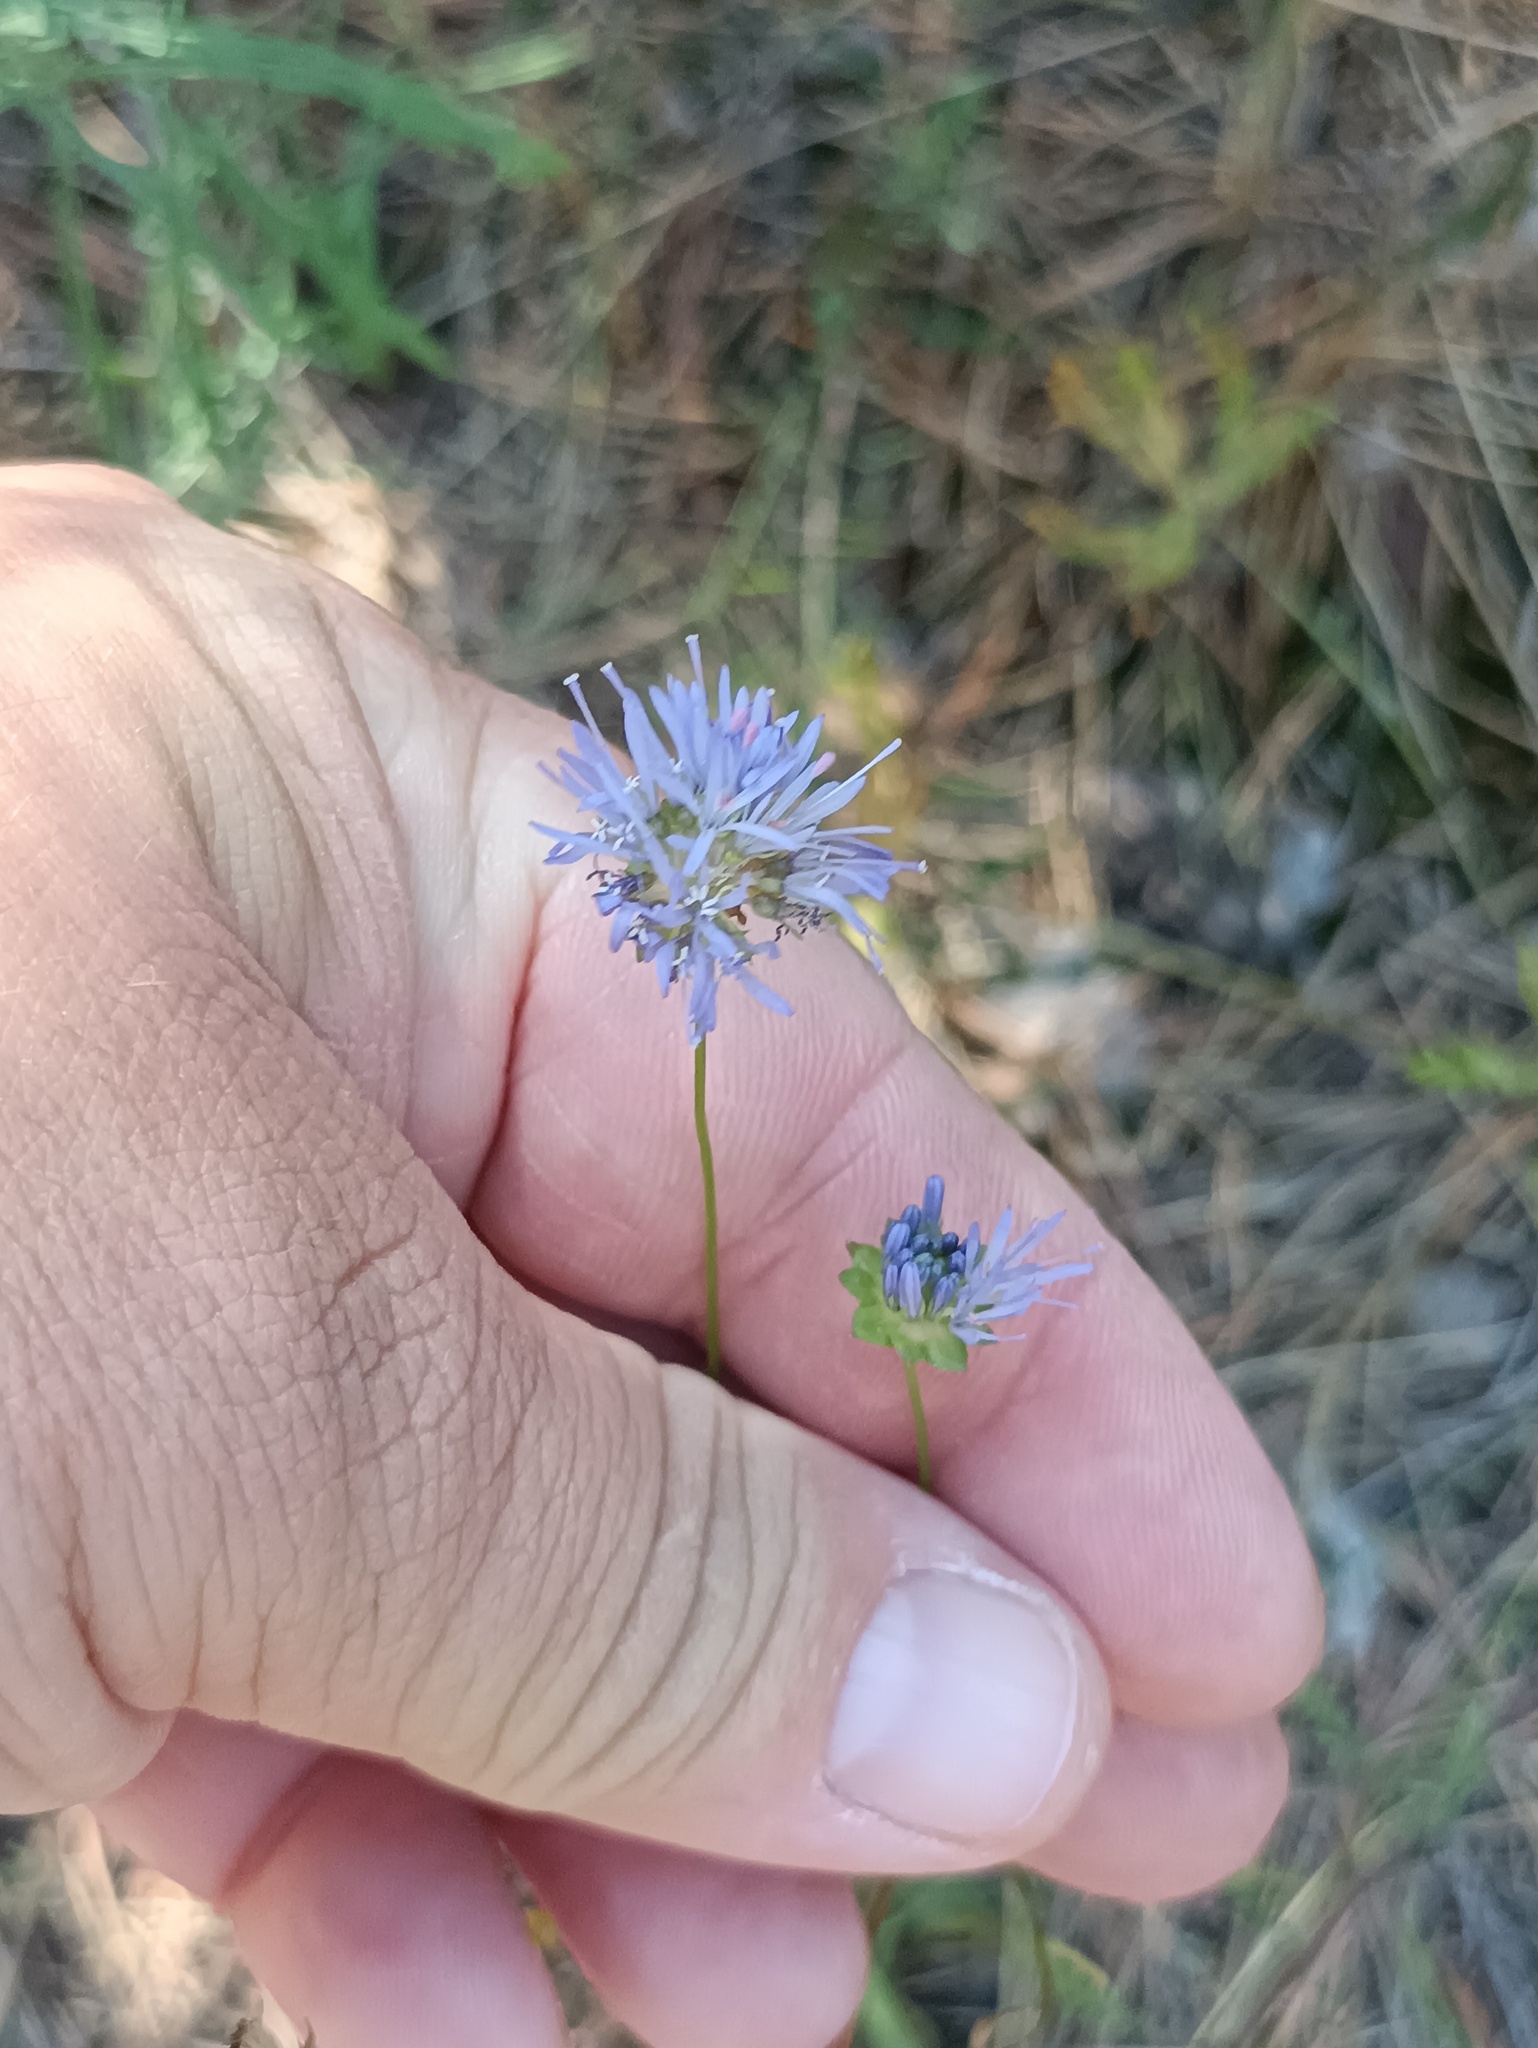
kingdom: Plantae
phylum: Tracheophyta
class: Magnoliopsida
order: Asterales
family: Campanulaceae
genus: Jasione
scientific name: Jasione montana
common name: Sheep's-bit
